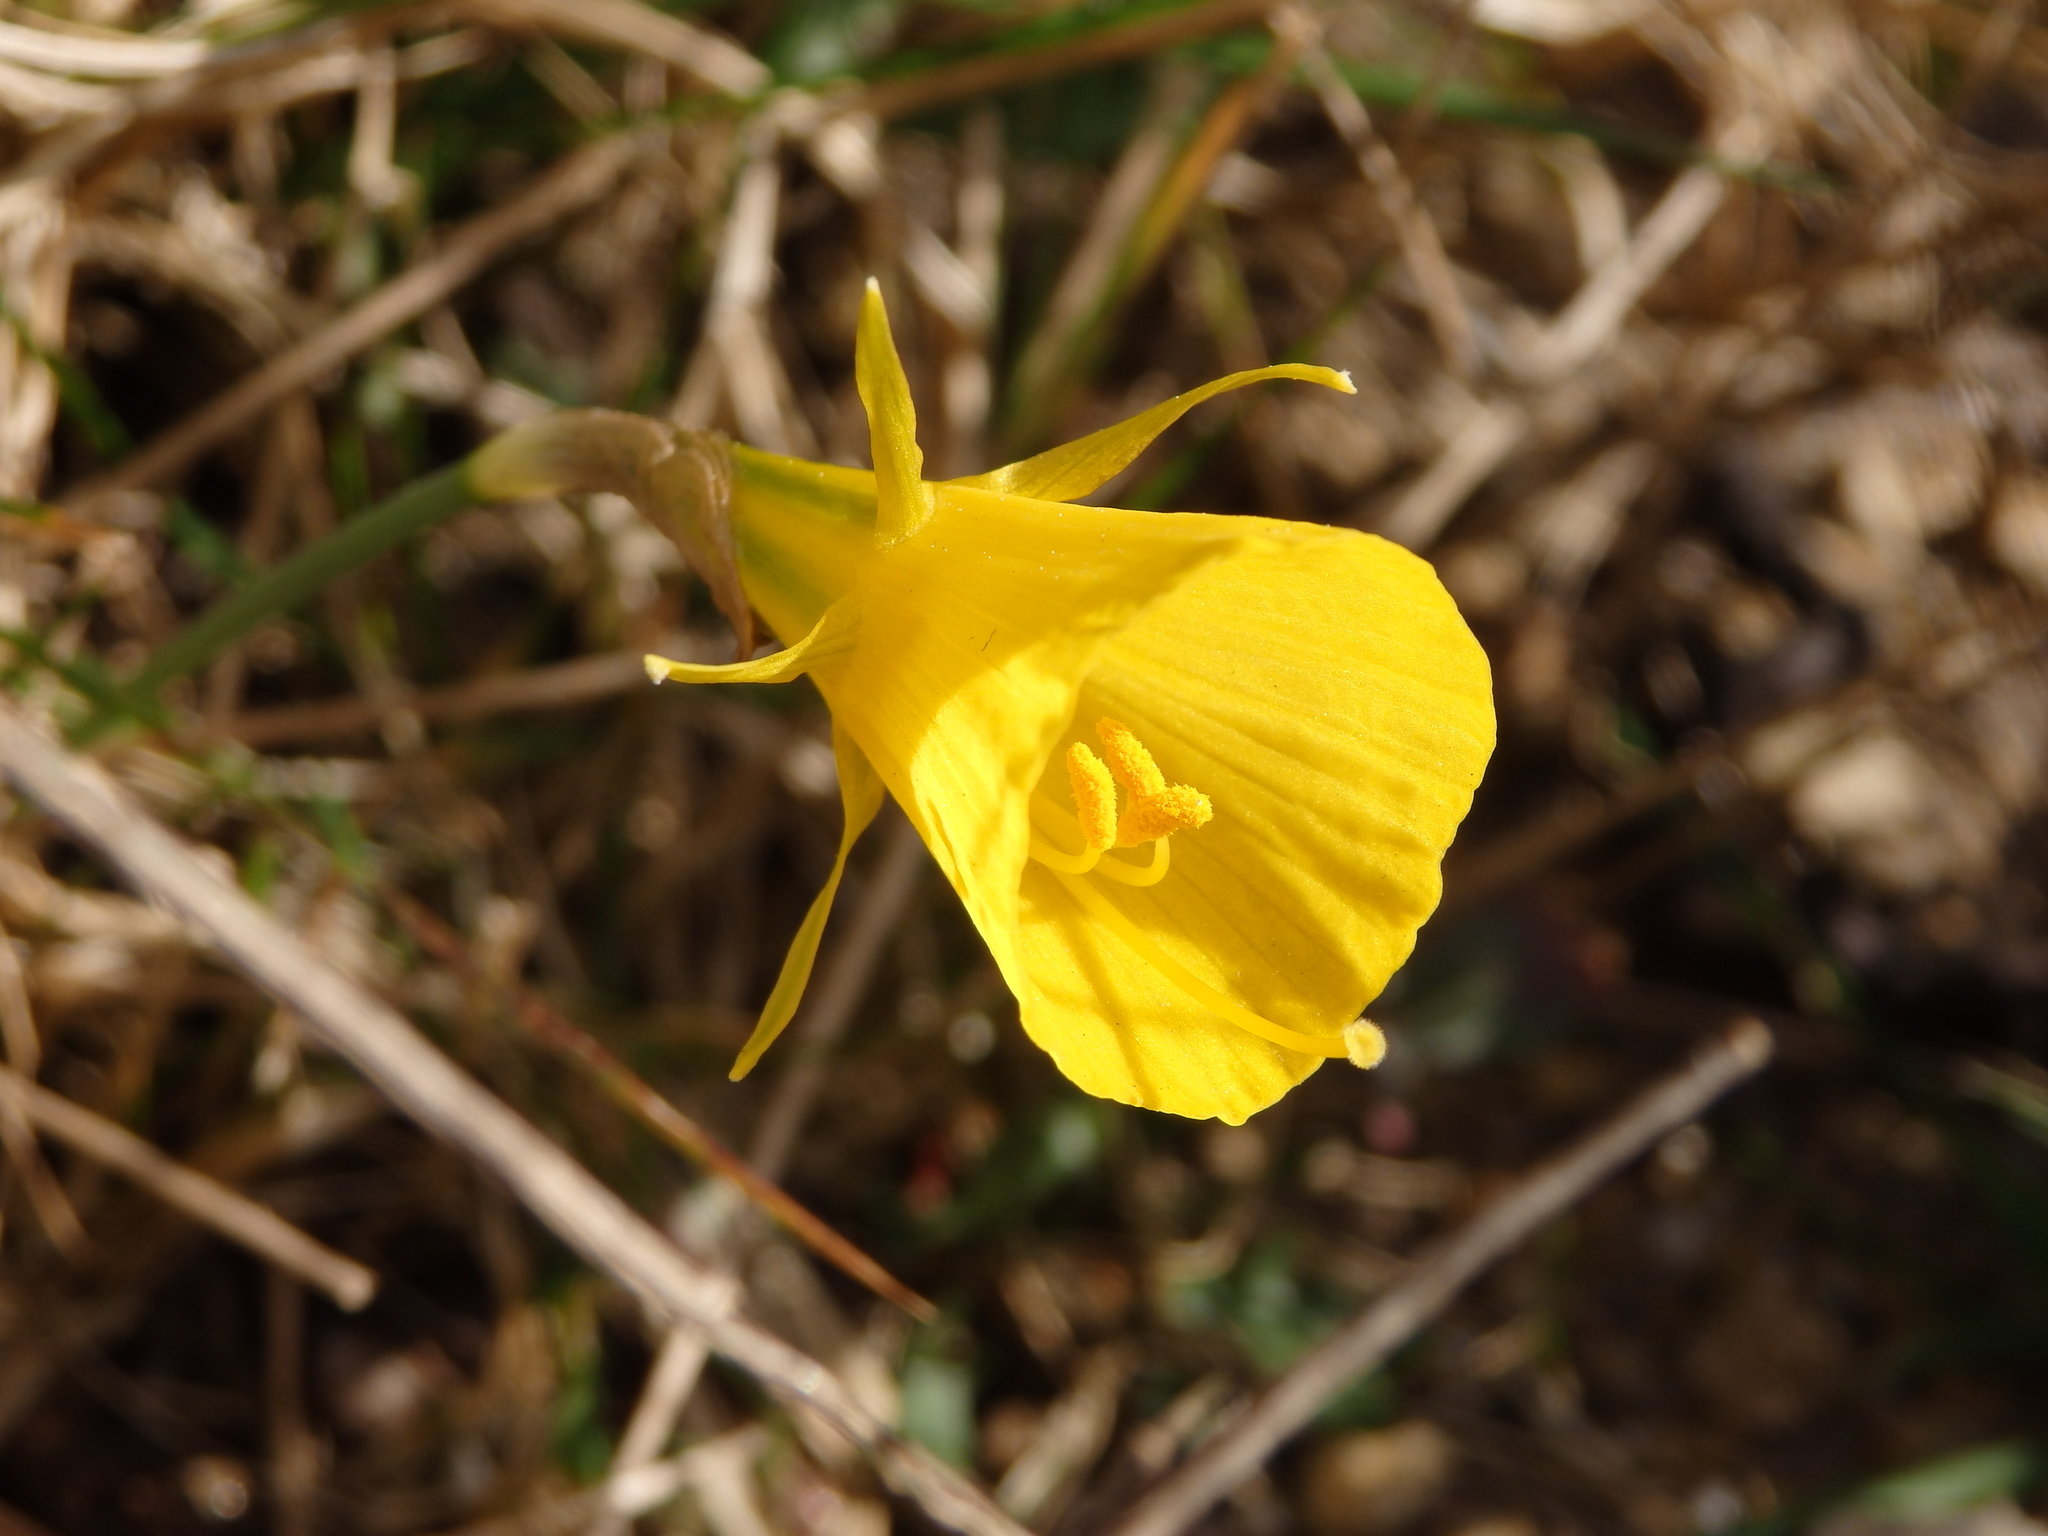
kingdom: Plantae
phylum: Tracheophyta
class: Liliopsida
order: Asparagales
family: Amaryllidaceae
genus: Narcissus
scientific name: Narcissus bulbocodium
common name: Hoop-petticoat daffodil
